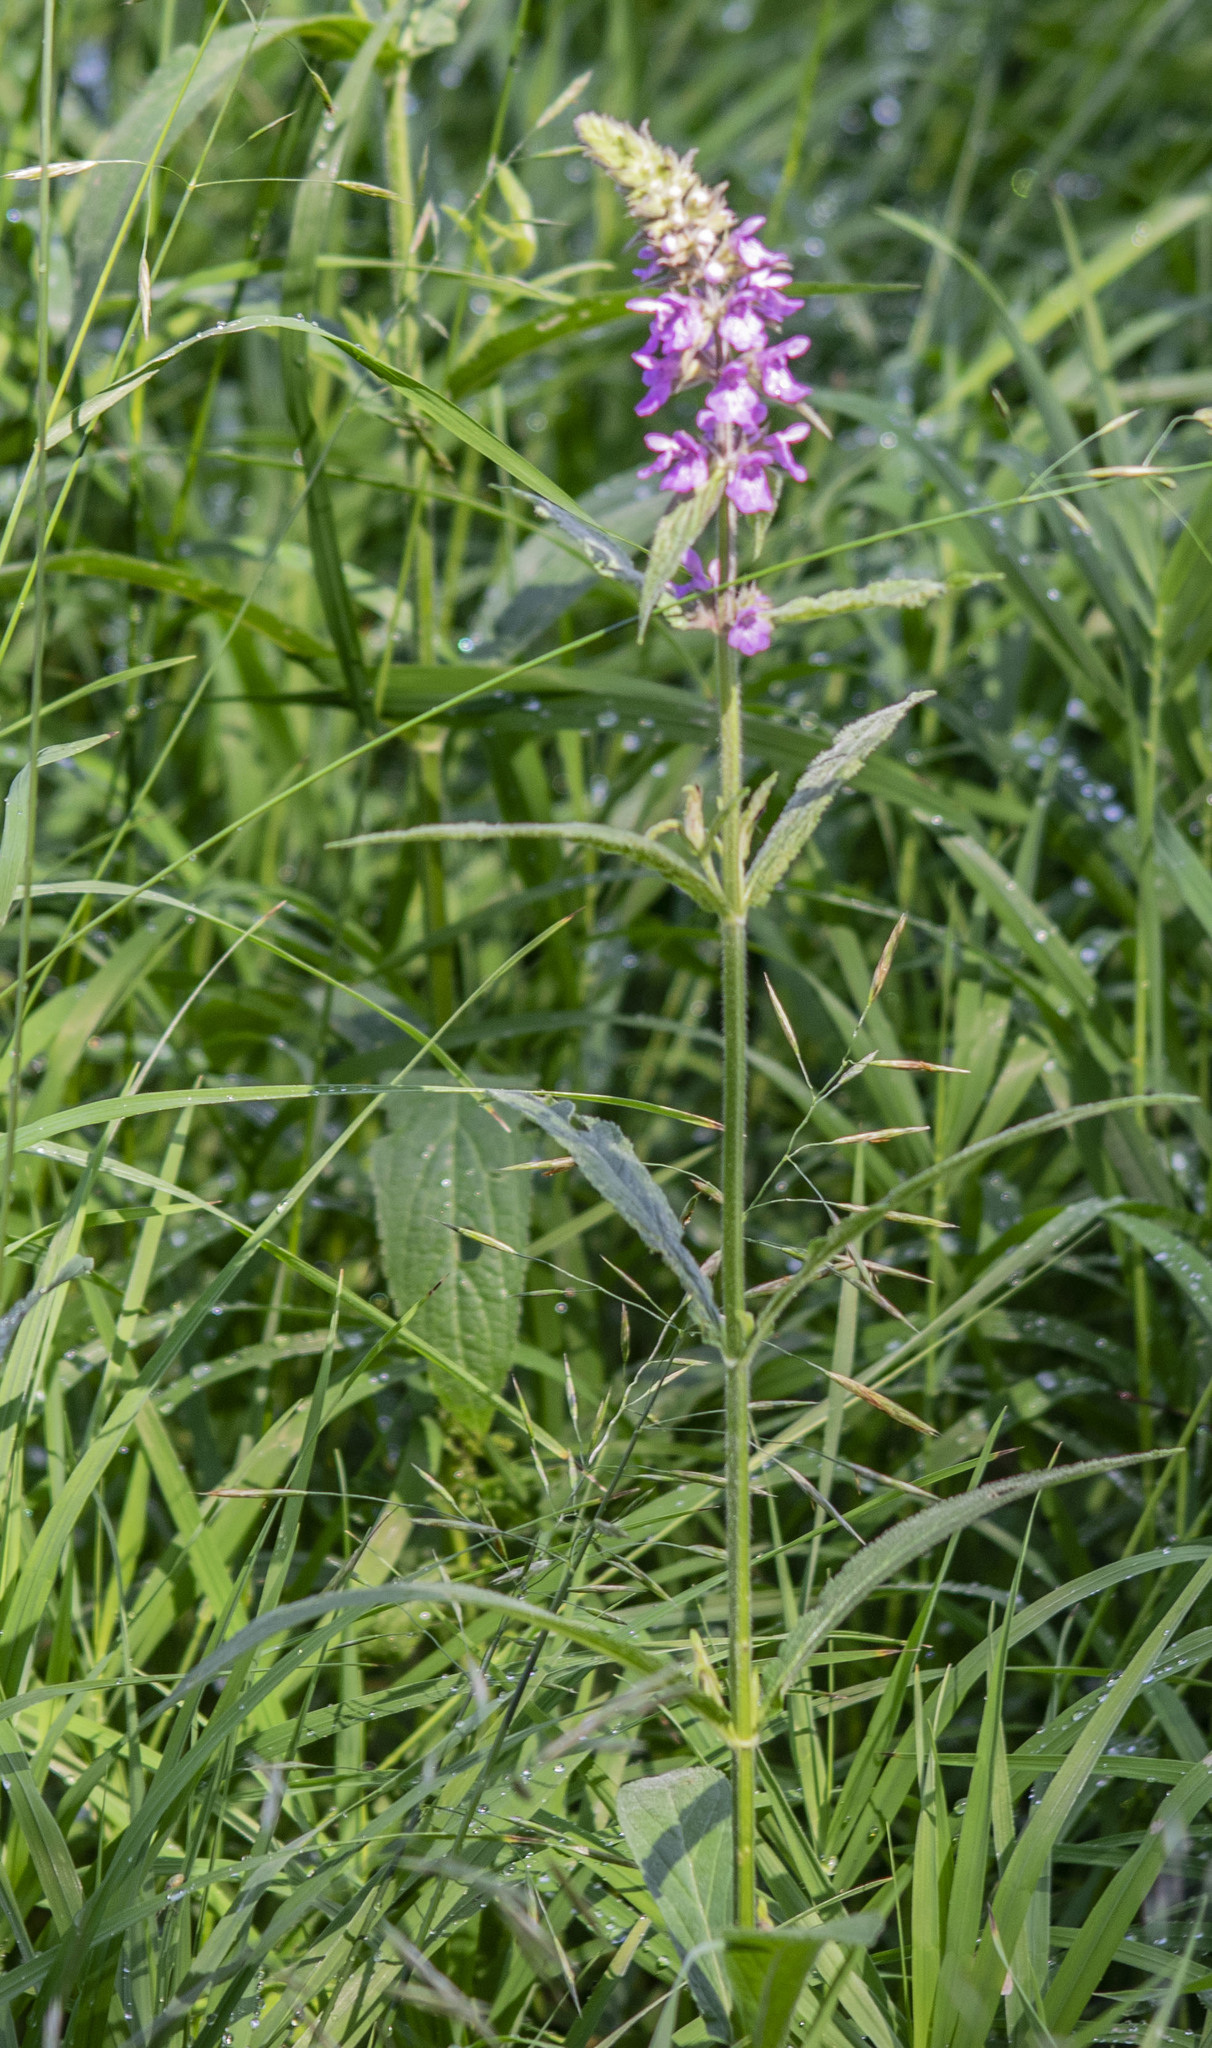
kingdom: Plantae
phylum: Tracheophyta
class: Magnoliopsida
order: Lamiales
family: Lamiaceae
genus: Stachys
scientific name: Stachys palustris
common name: Marsh woundwort
